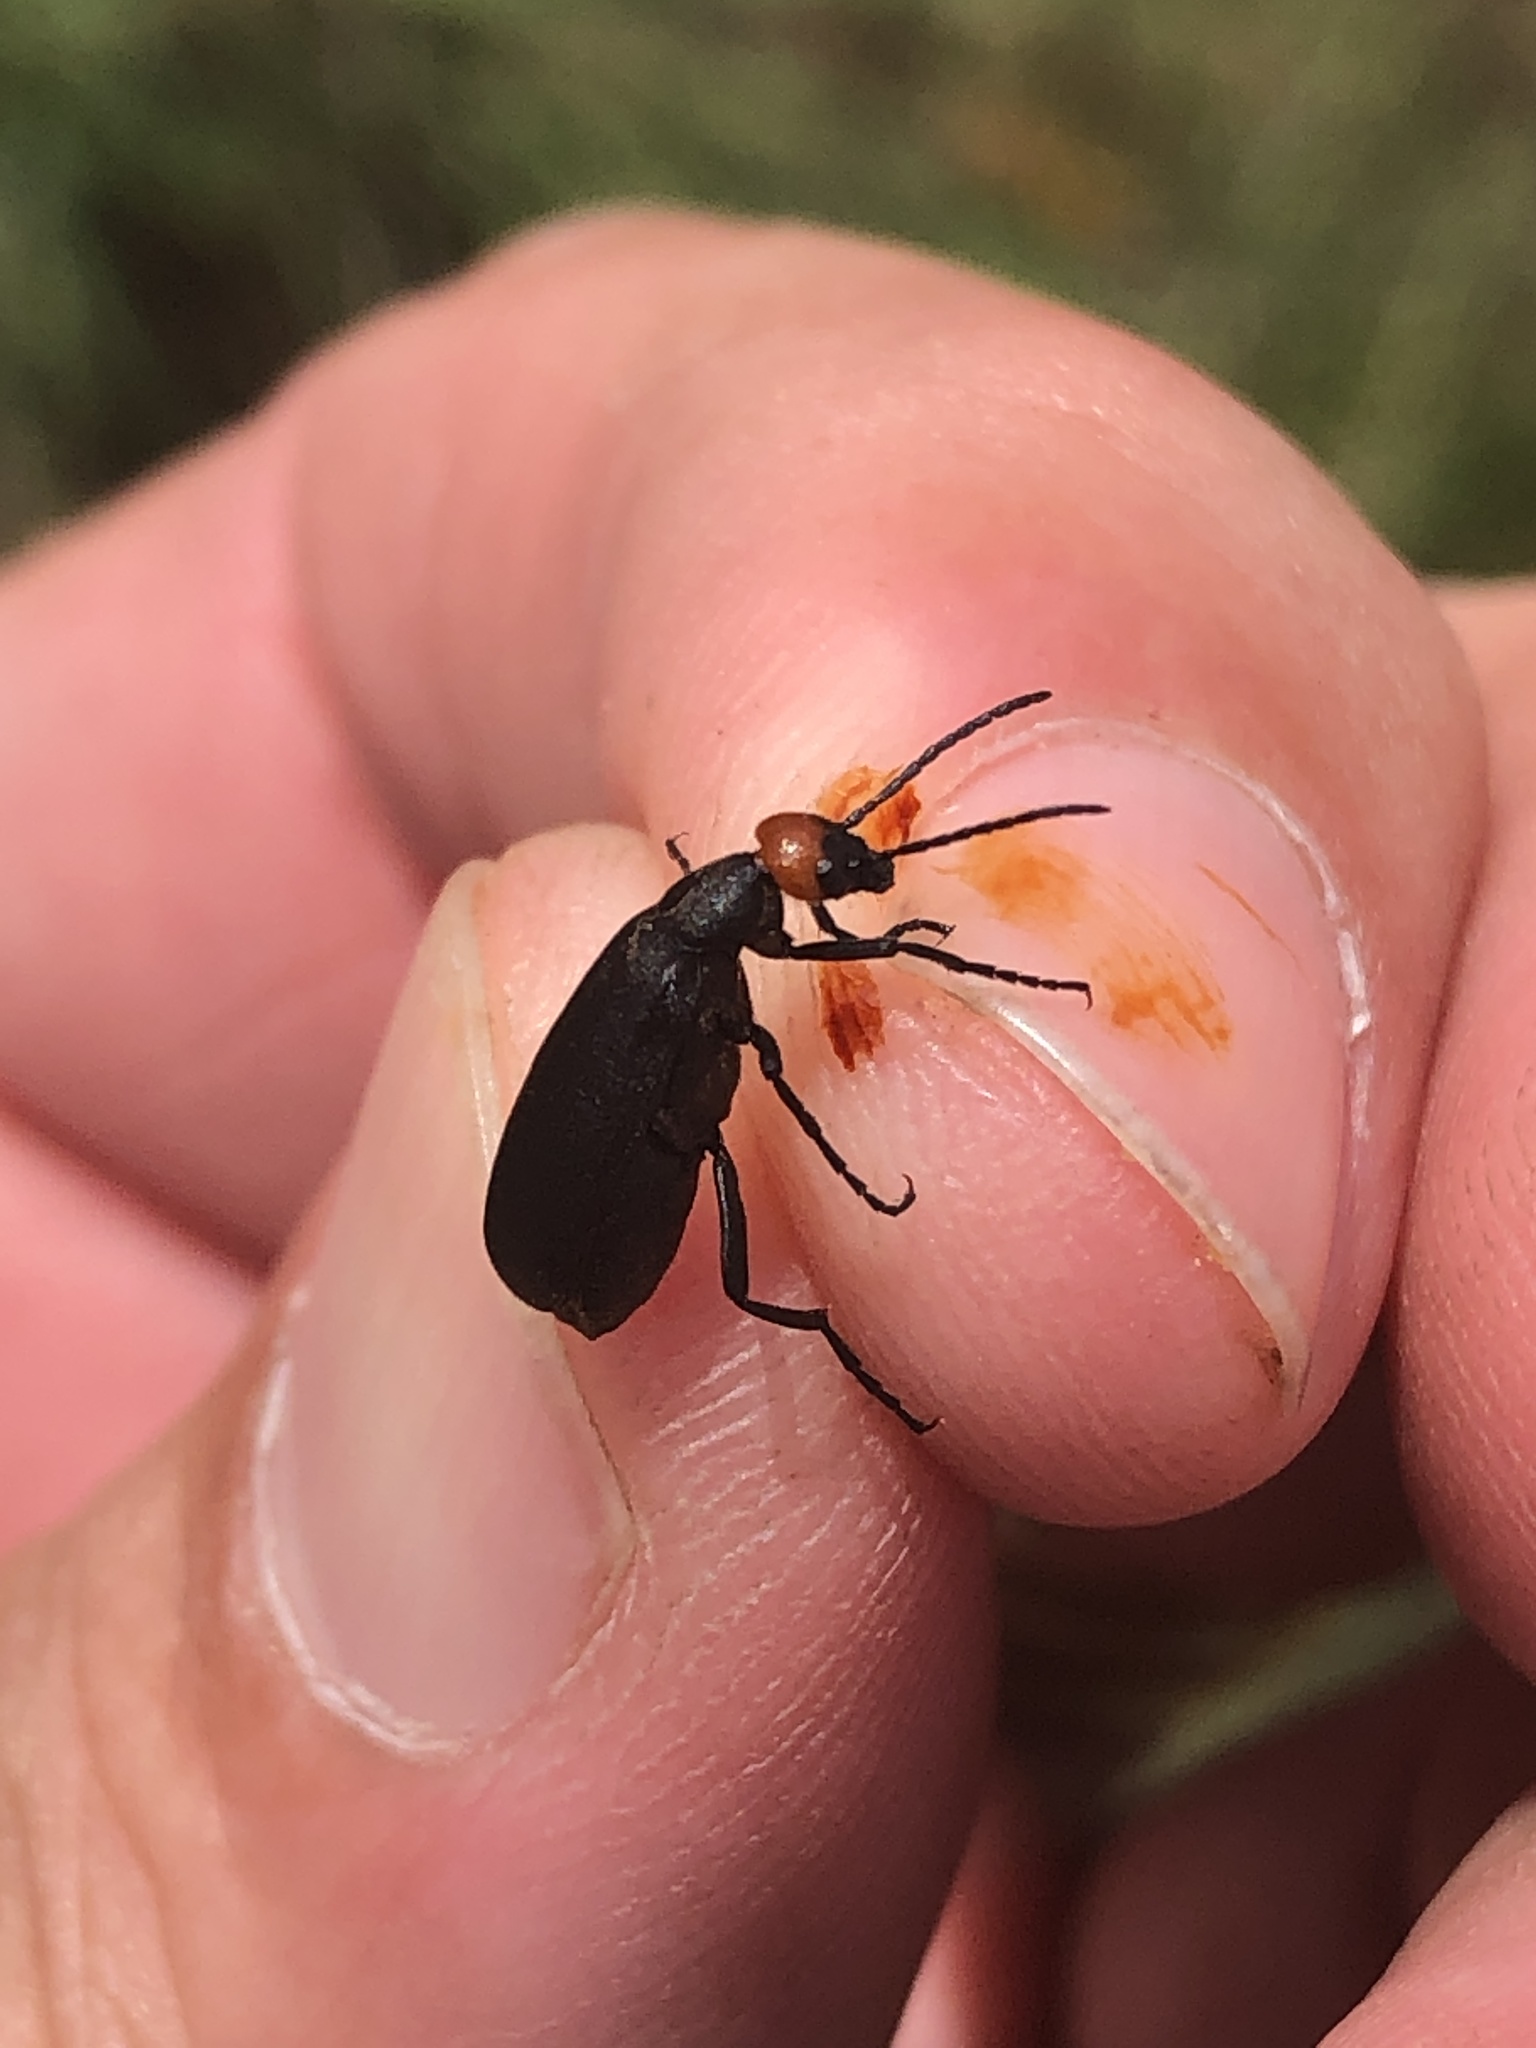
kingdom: Animalia
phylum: Arthropoda
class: Insecta
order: Coleoptera
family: Meloidae
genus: Epicauta
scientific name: Epicauta atrata
